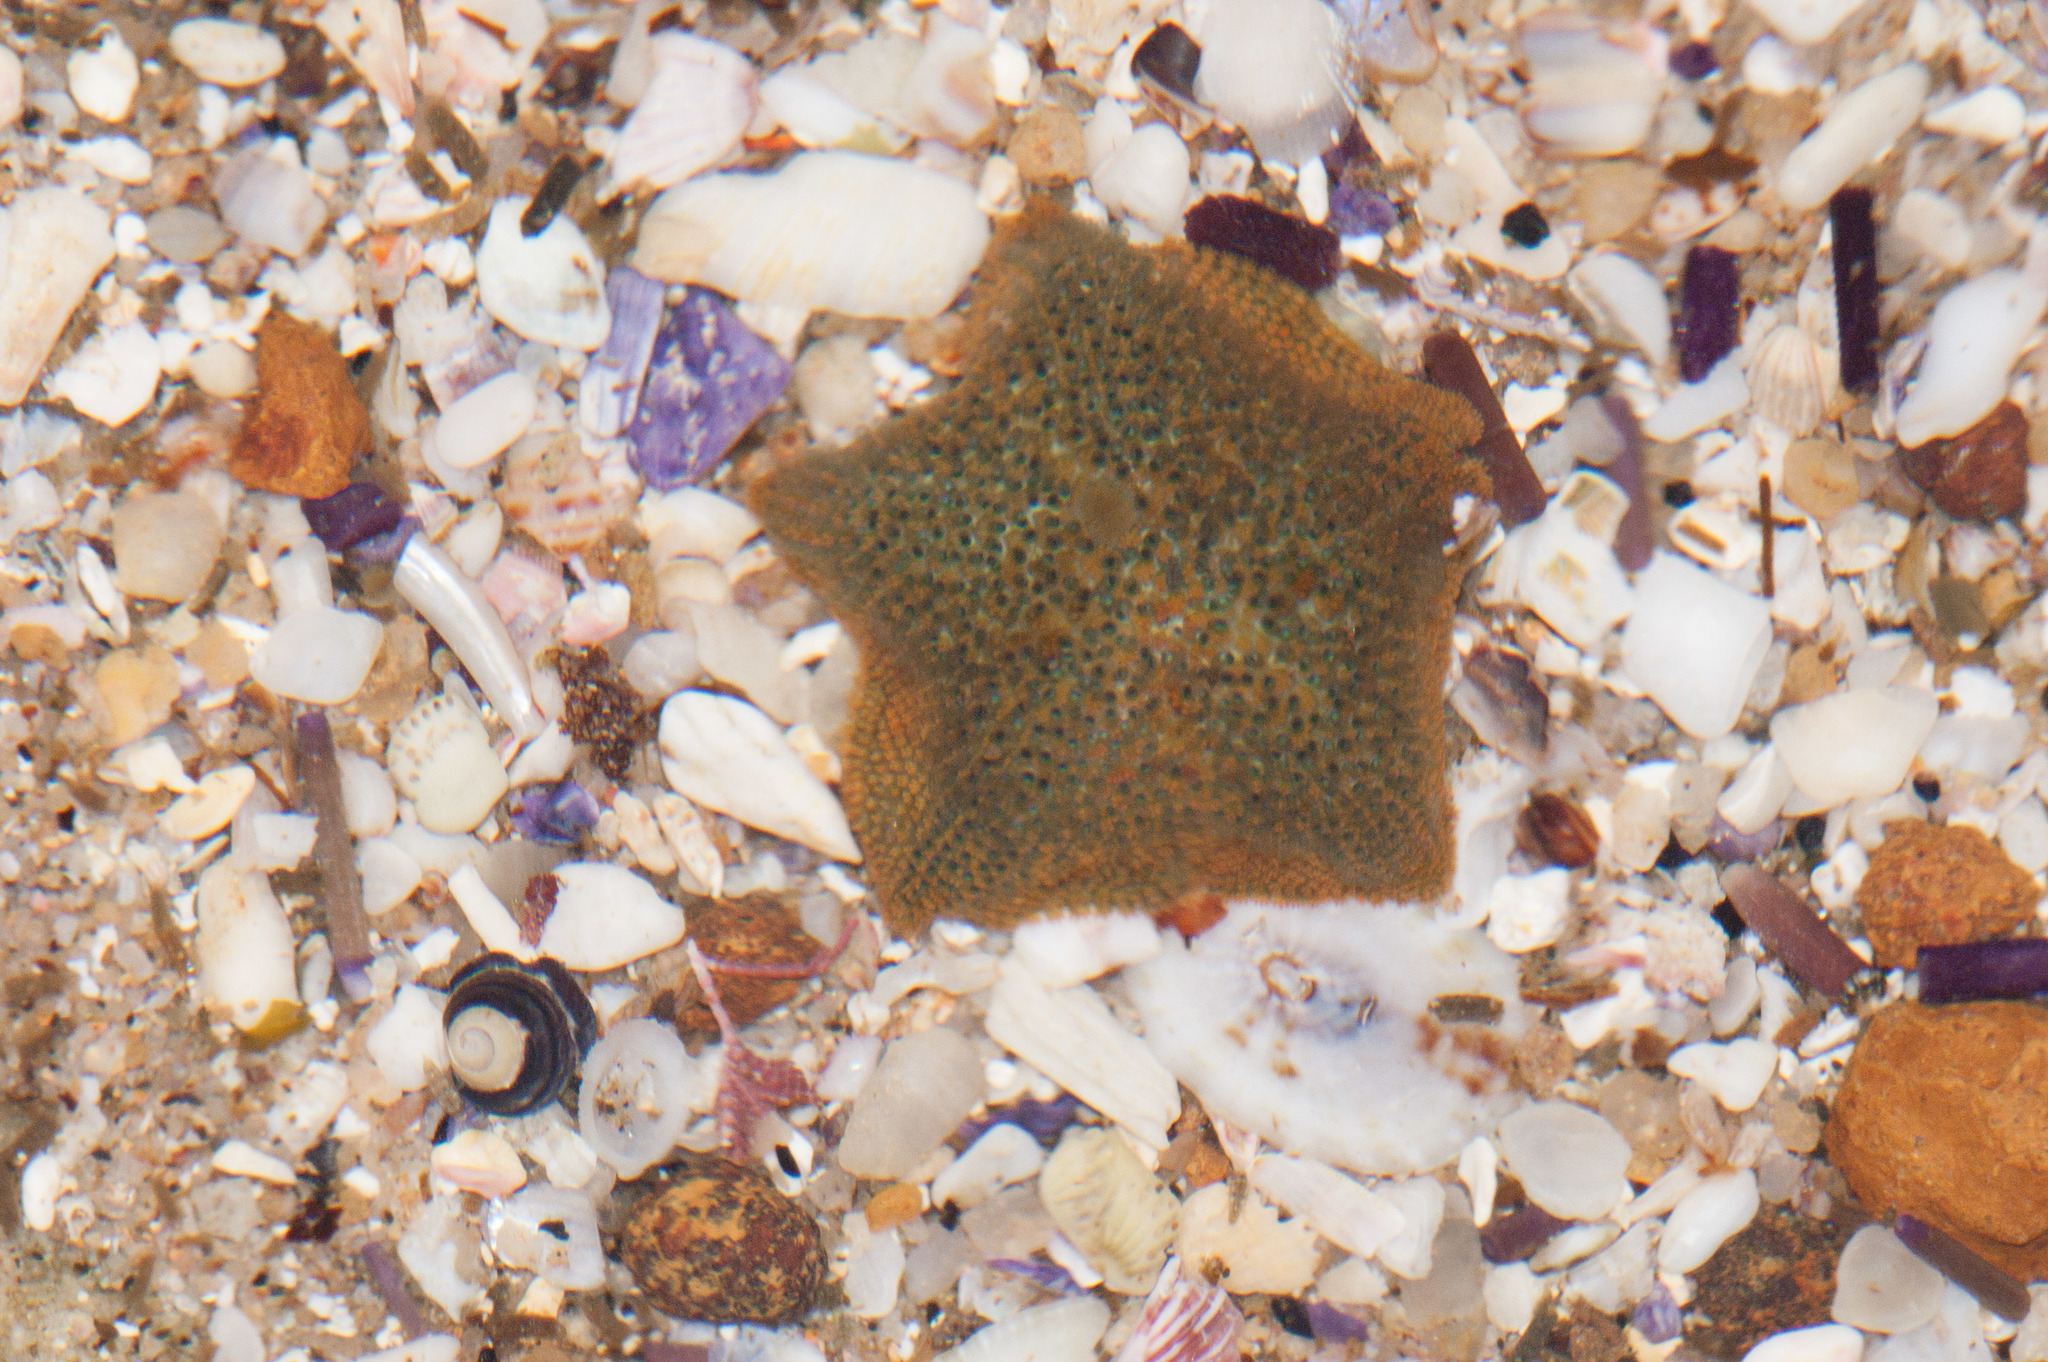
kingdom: Animalia
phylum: Echinodermata
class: Asteroidea
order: Valvatida
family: Asterinidae
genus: Parvulastra
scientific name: Parvulastra exigua
